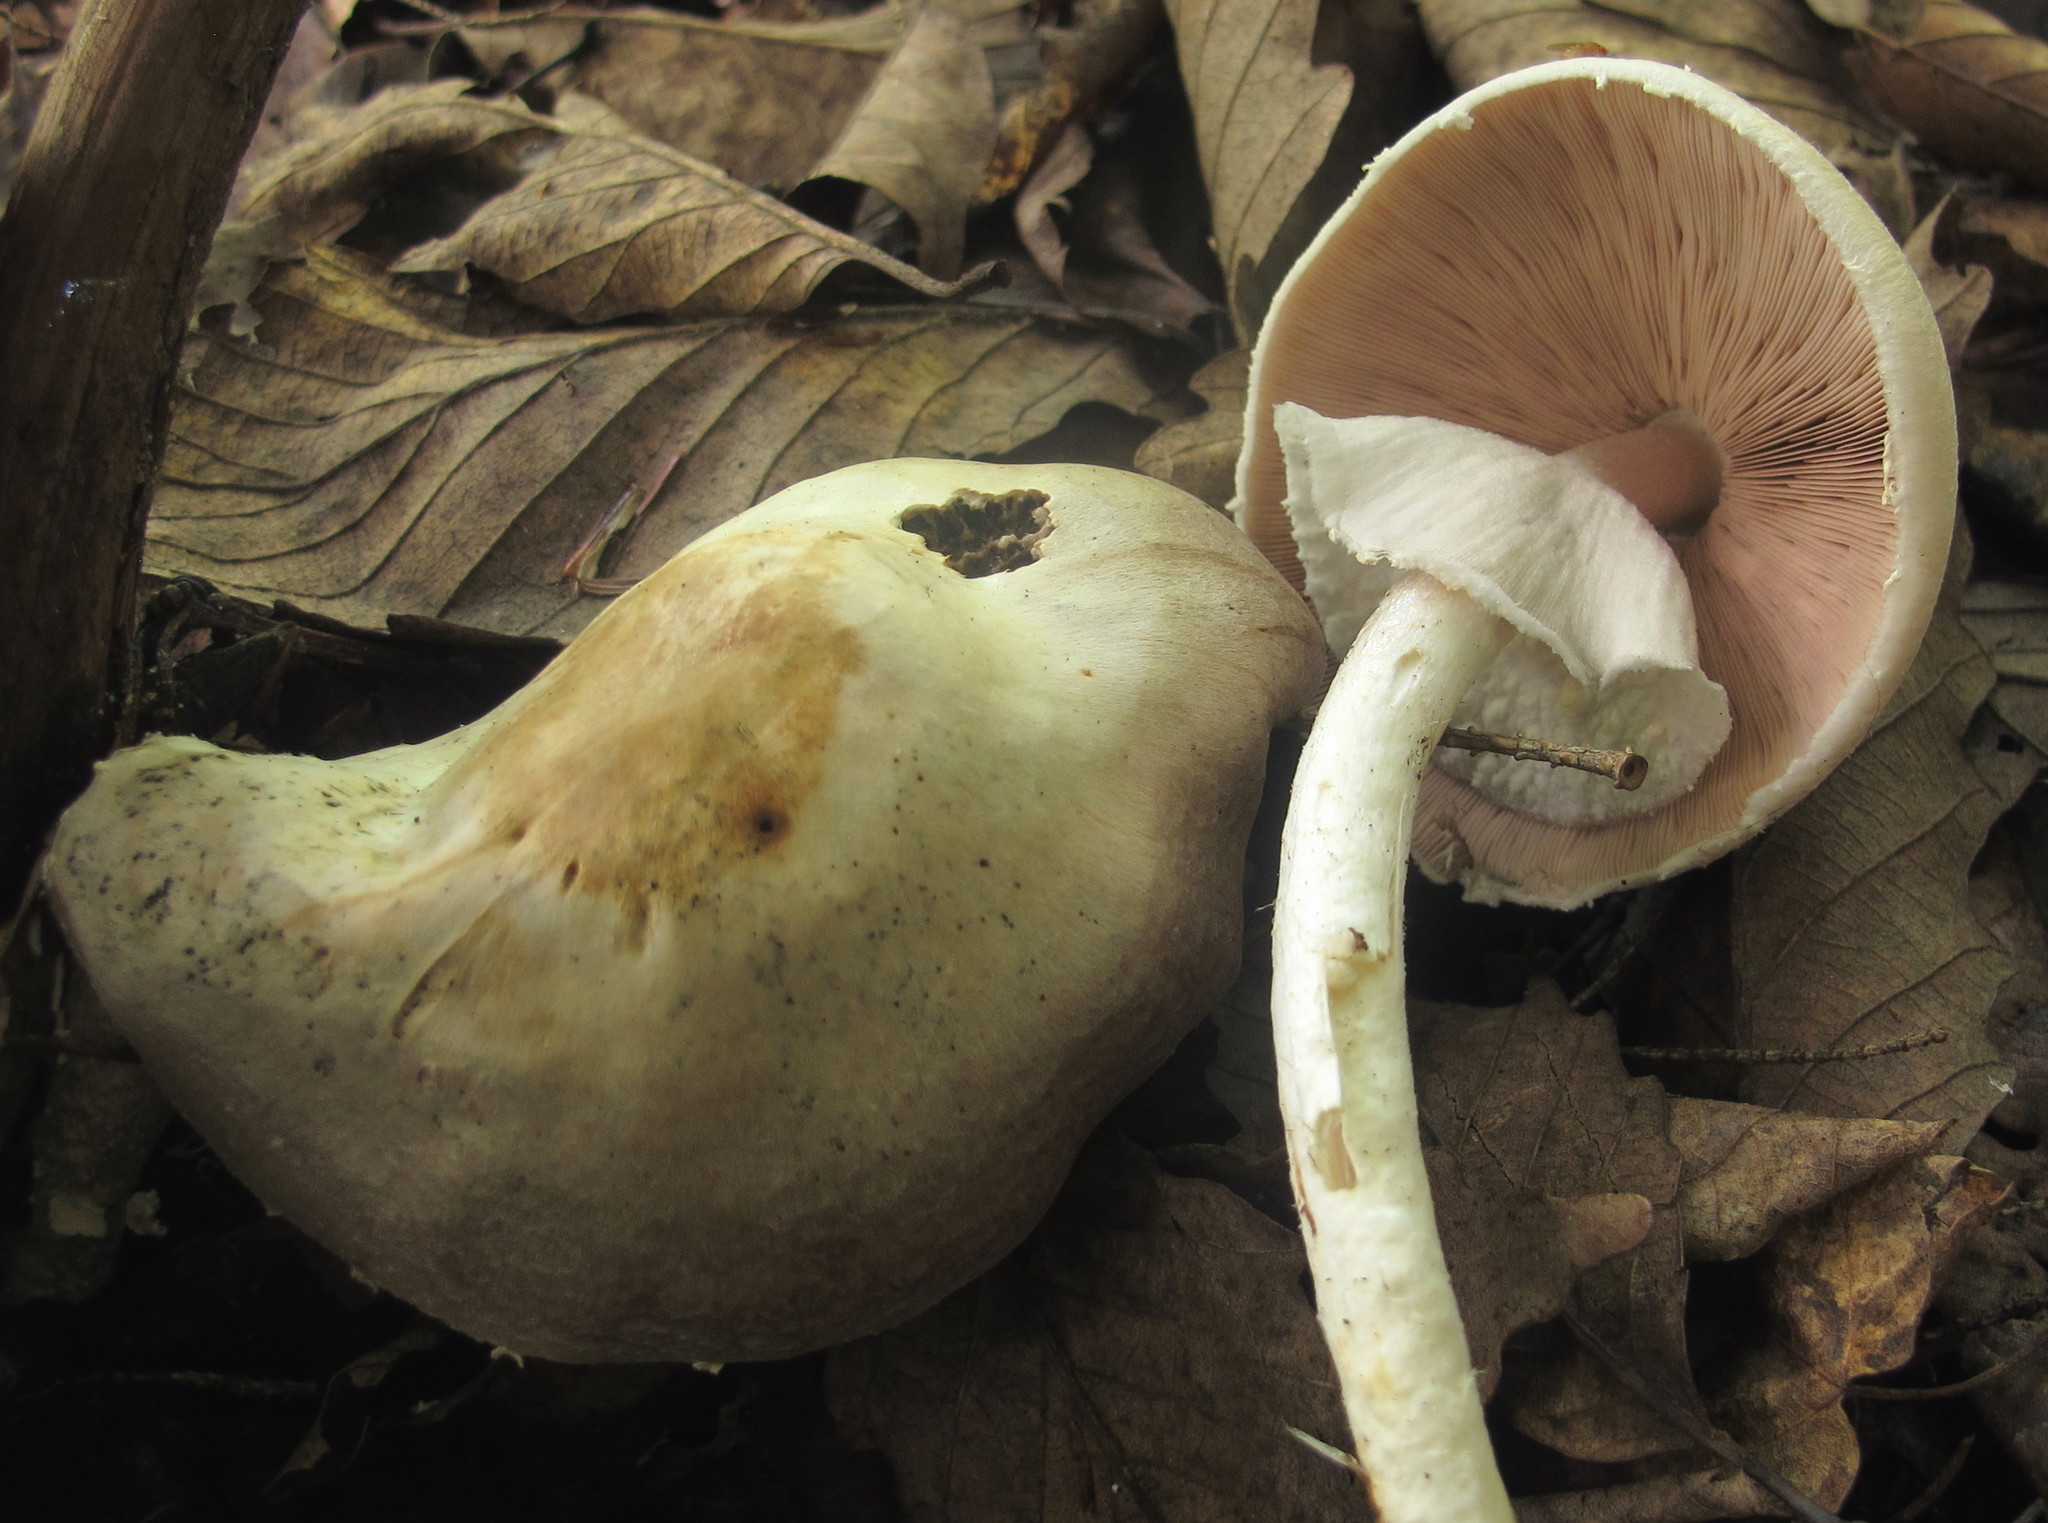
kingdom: Fungi
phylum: Basidiomycota
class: Agaricomycetes
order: Agaricales
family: Agaricaceae
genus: Agaricus
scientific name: Agaricus sylvicola
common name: Wood mushroom
